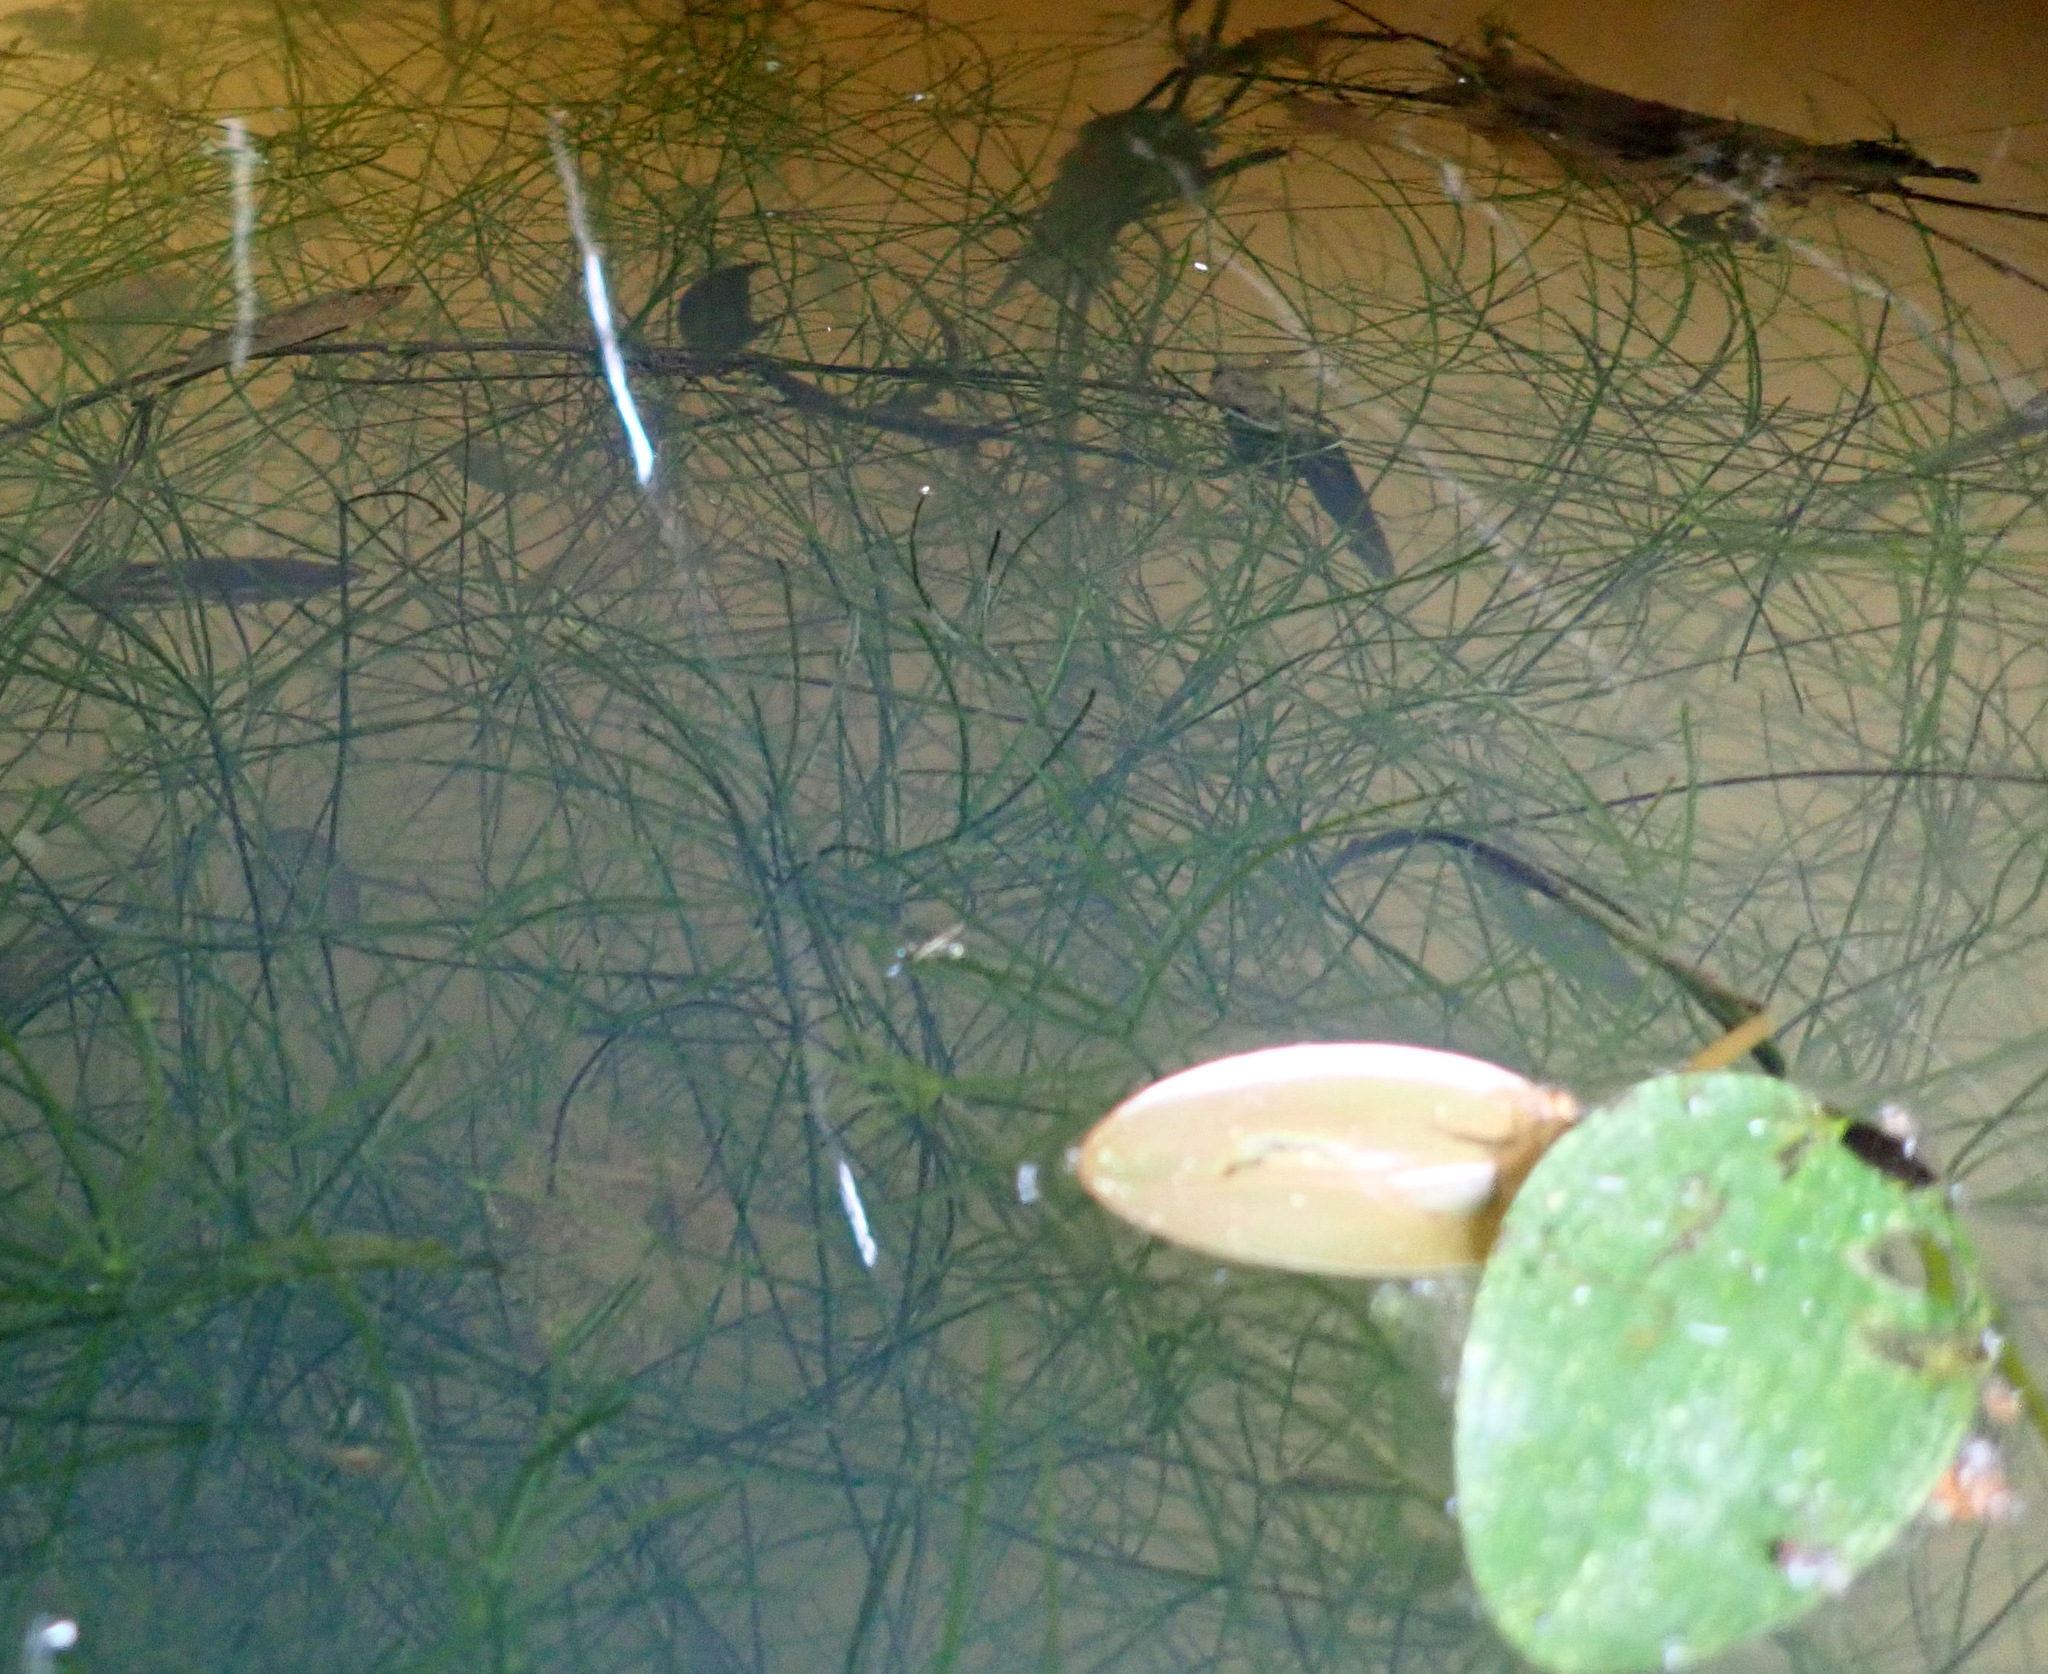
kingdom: Plantae
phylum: Charophyta
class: Charophyceae
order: Charales
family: Characeae
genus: Nitella
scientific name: Nitella translucens
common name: Translucent stonewort
